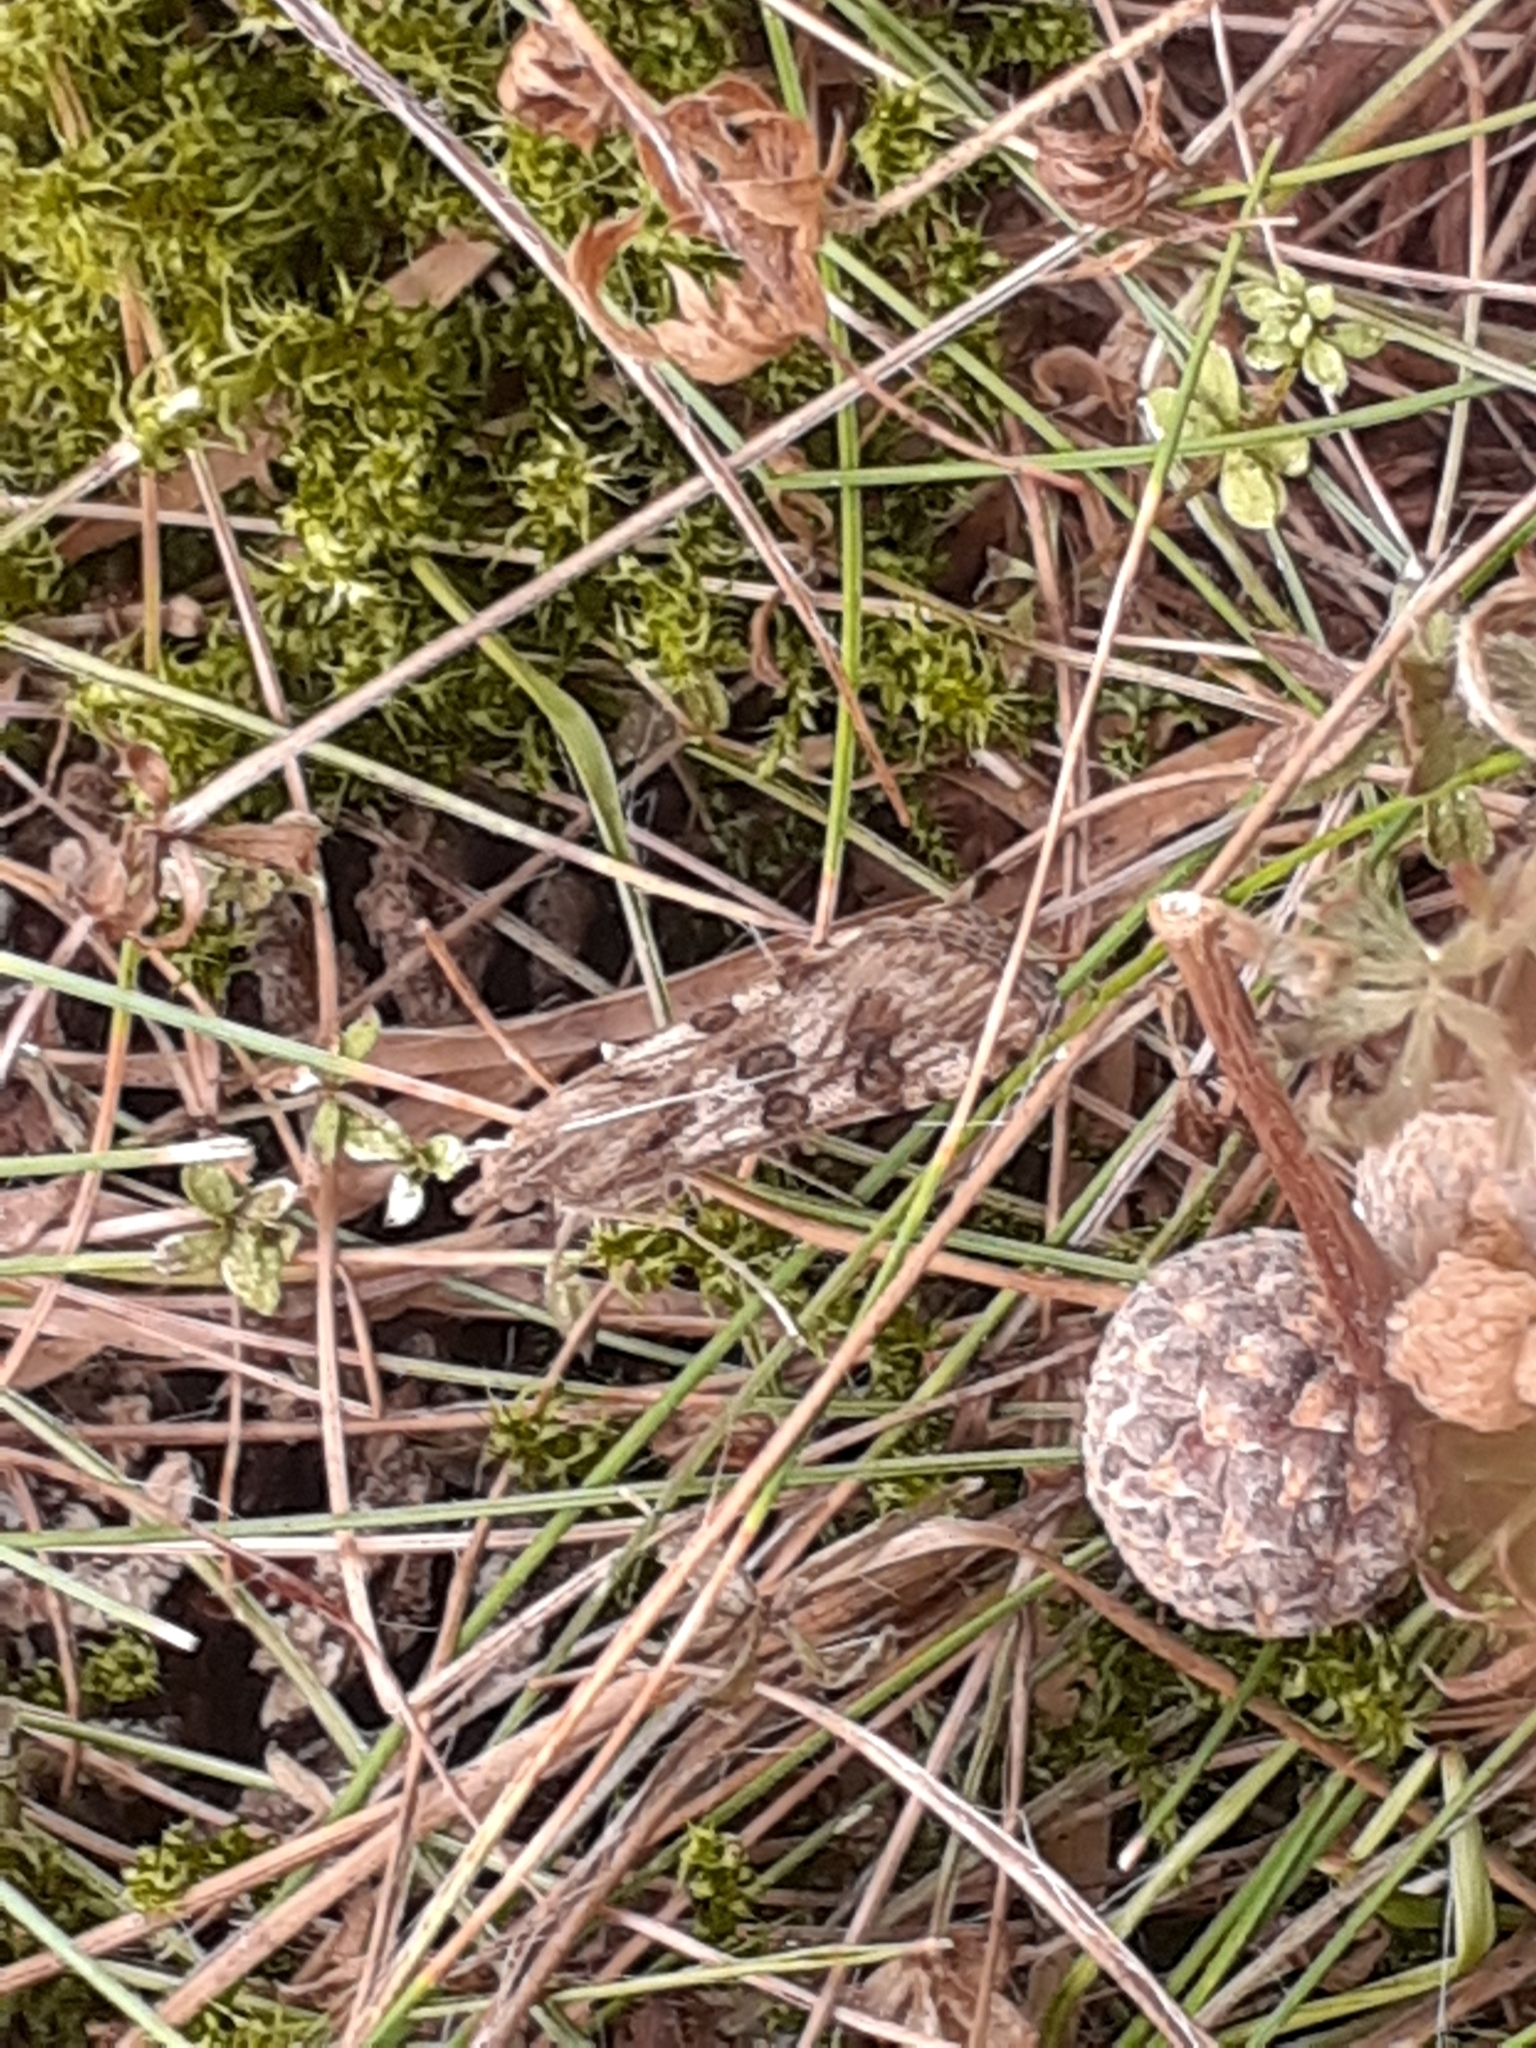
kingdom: Animalia
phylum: Arthropoda
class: Insecta
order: Lepidoptera
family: Crambidae
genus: Nomophila
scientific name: Nomophila noctuella
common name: Rush veneer
